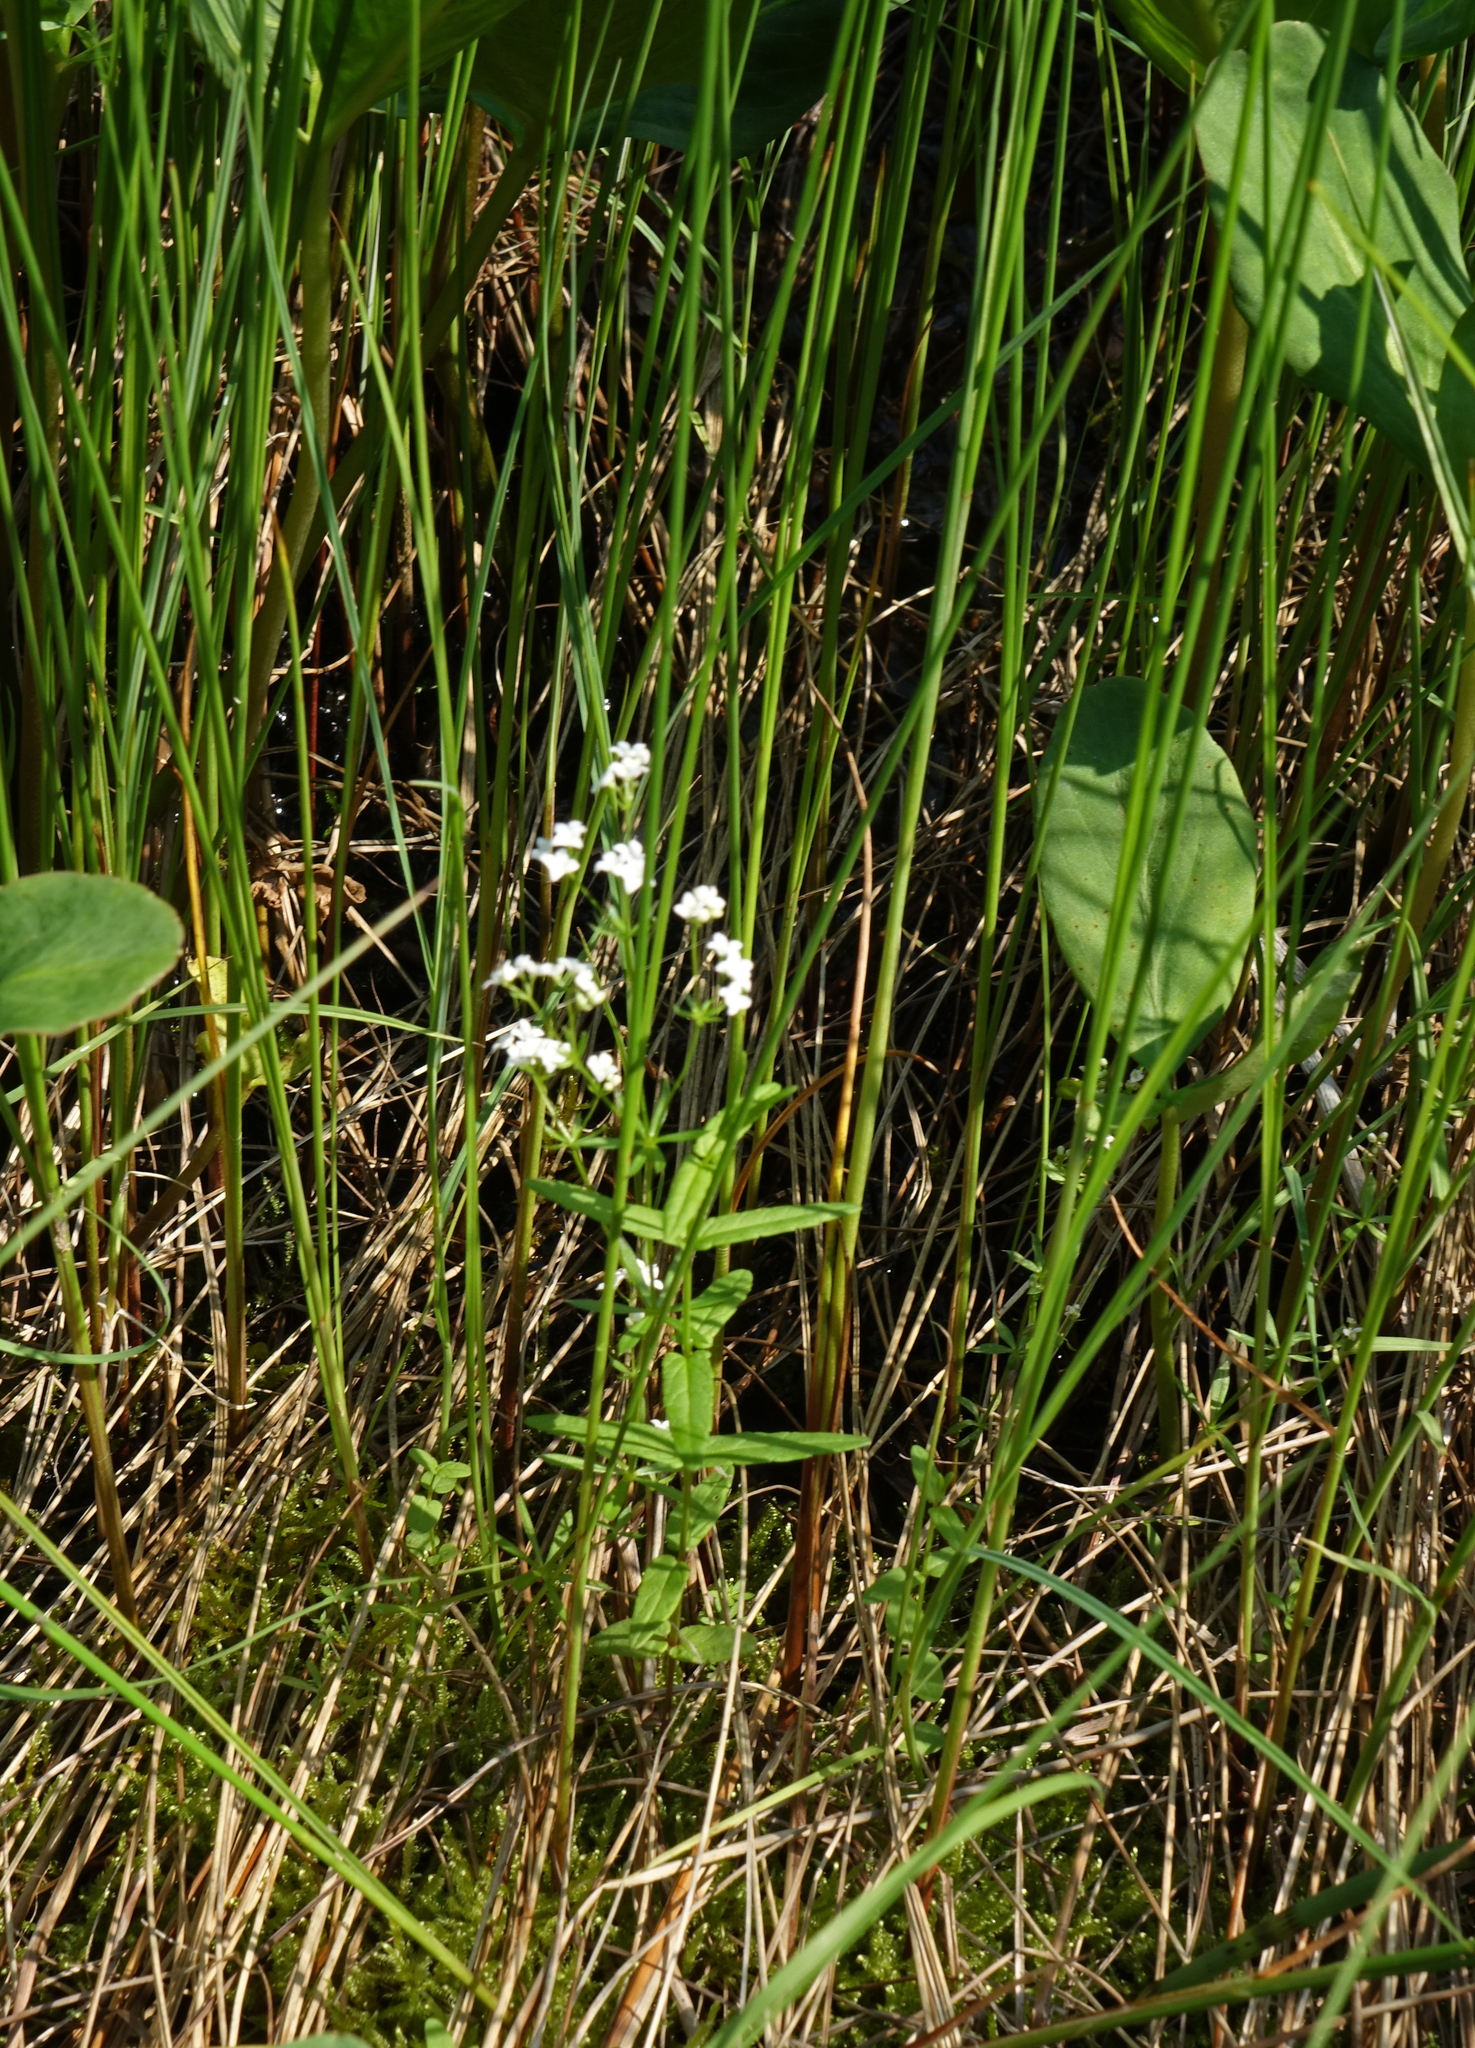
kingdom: Plantae
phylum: Tracheophyta
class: Magnoliopsida
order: Gentianales
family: Rubiaceae
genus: Galium
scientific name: Galium uliginosum
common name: Fen bedstraw
